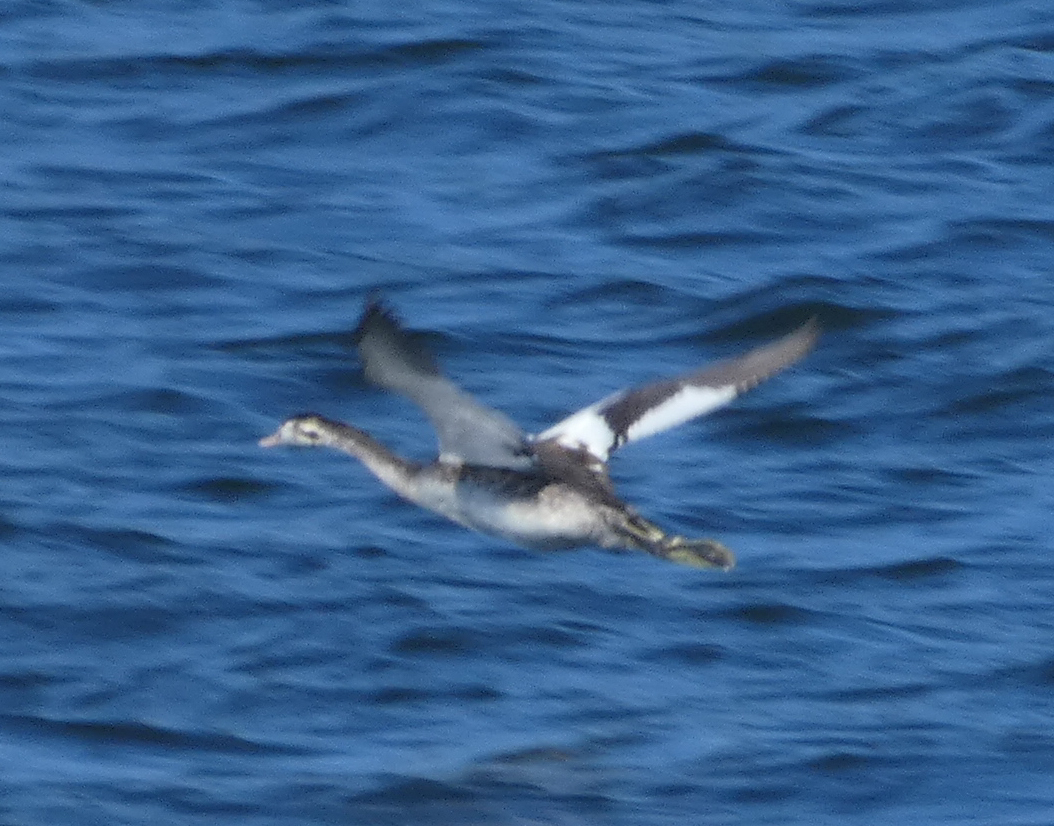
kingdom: Animalia
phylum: Chordata
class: Aves
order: Podicipediformes
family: Podicipedidae
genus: Podiceps
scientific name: Podiceps cristatus
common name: Great crested grebe
